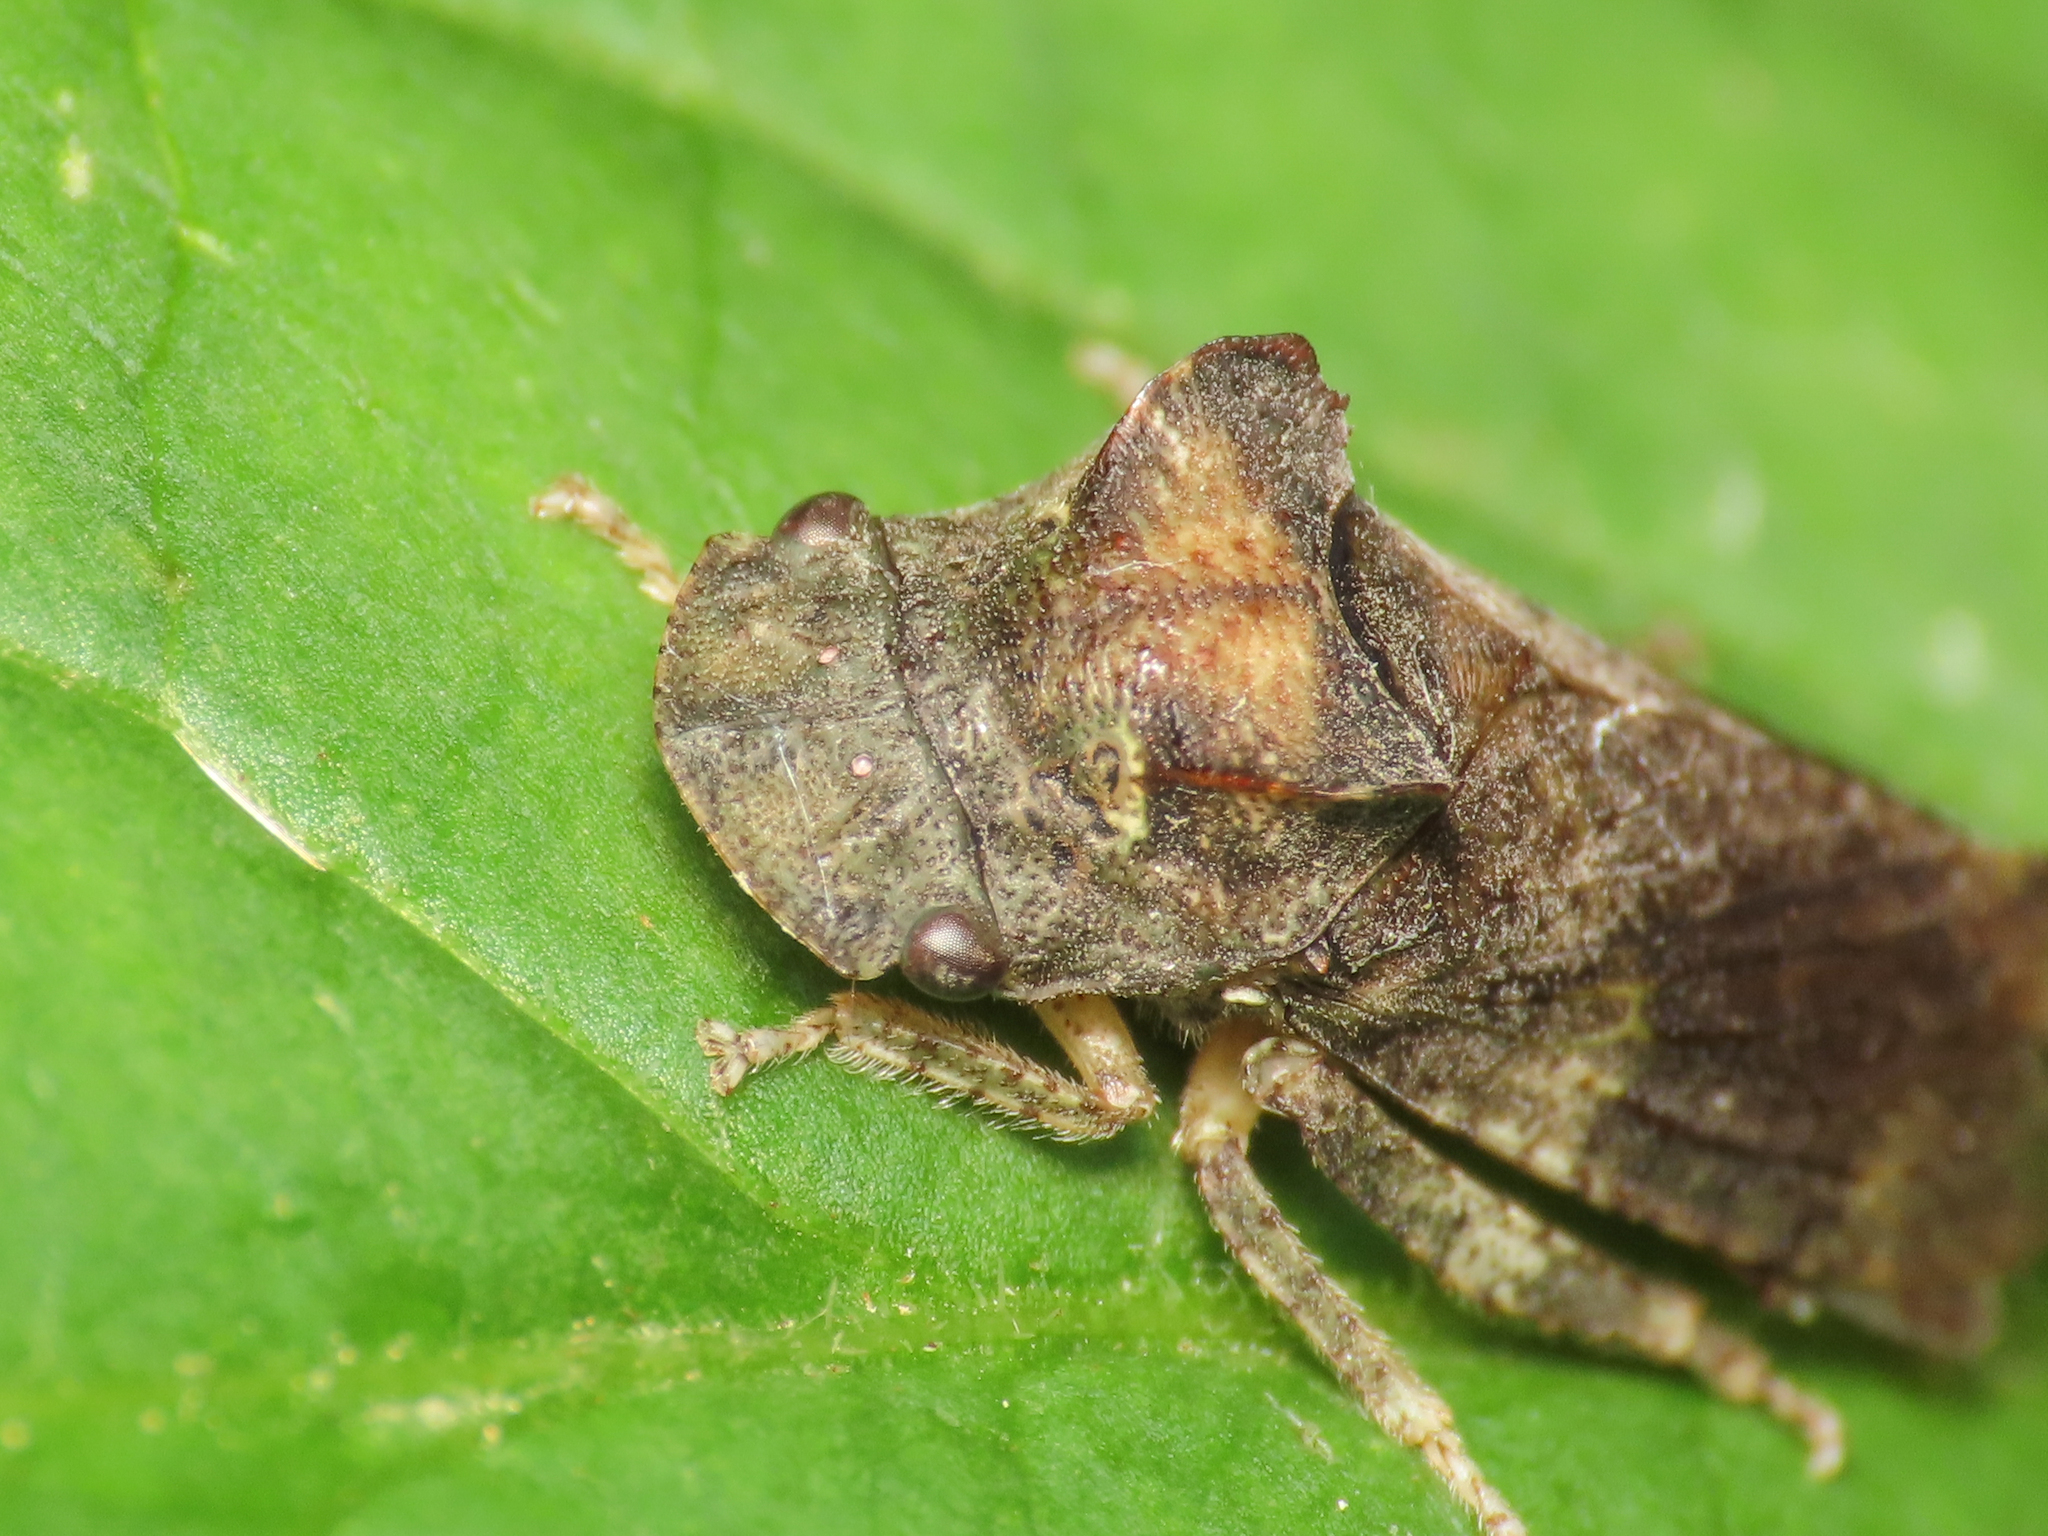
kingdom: Animalia
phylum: Arthropoda
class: Insecta
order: Hemiptera
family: Cicadellidae
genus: Ledra
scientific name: Ledra aurita
